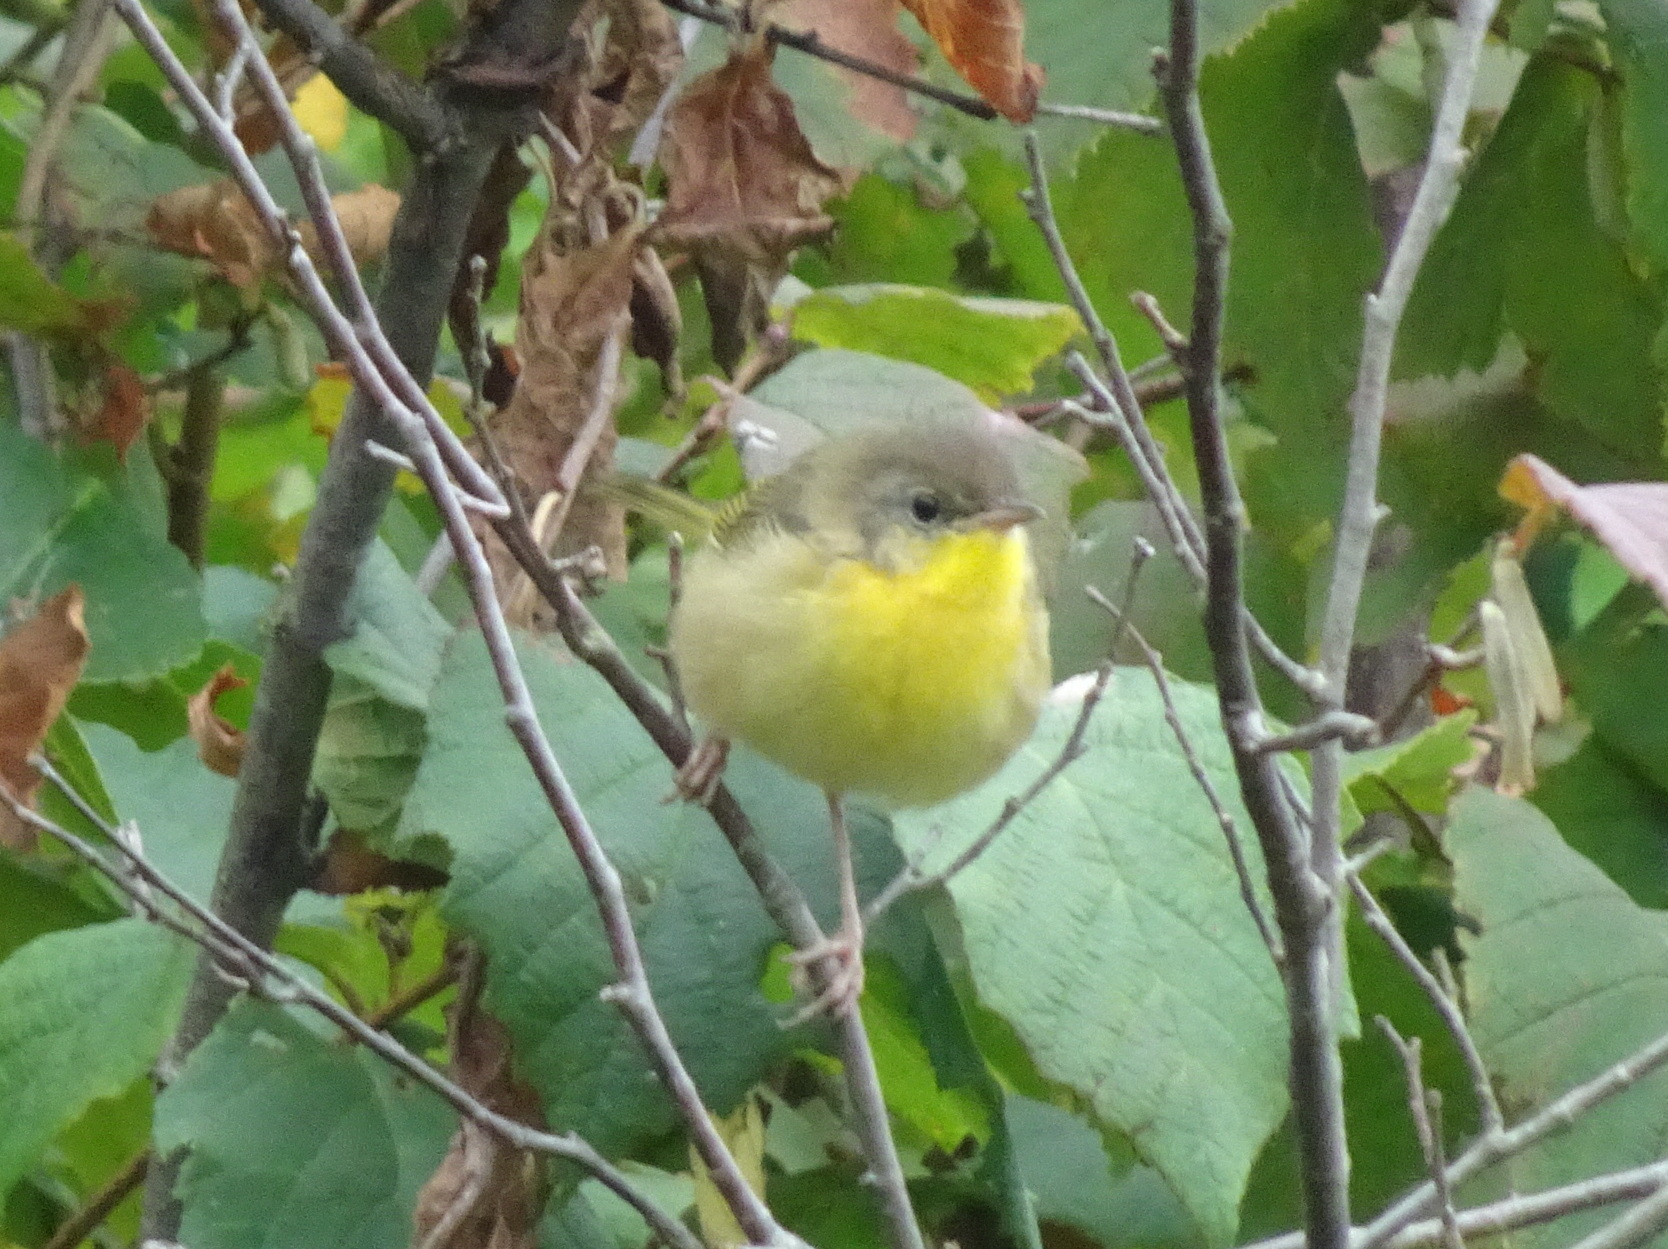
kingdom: Animalia
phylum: Chordata
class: Aves
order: Passeriformes
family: Parulidae
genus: Geothlypis
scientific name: Geothlypis trichas
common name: Common yellowthroat
